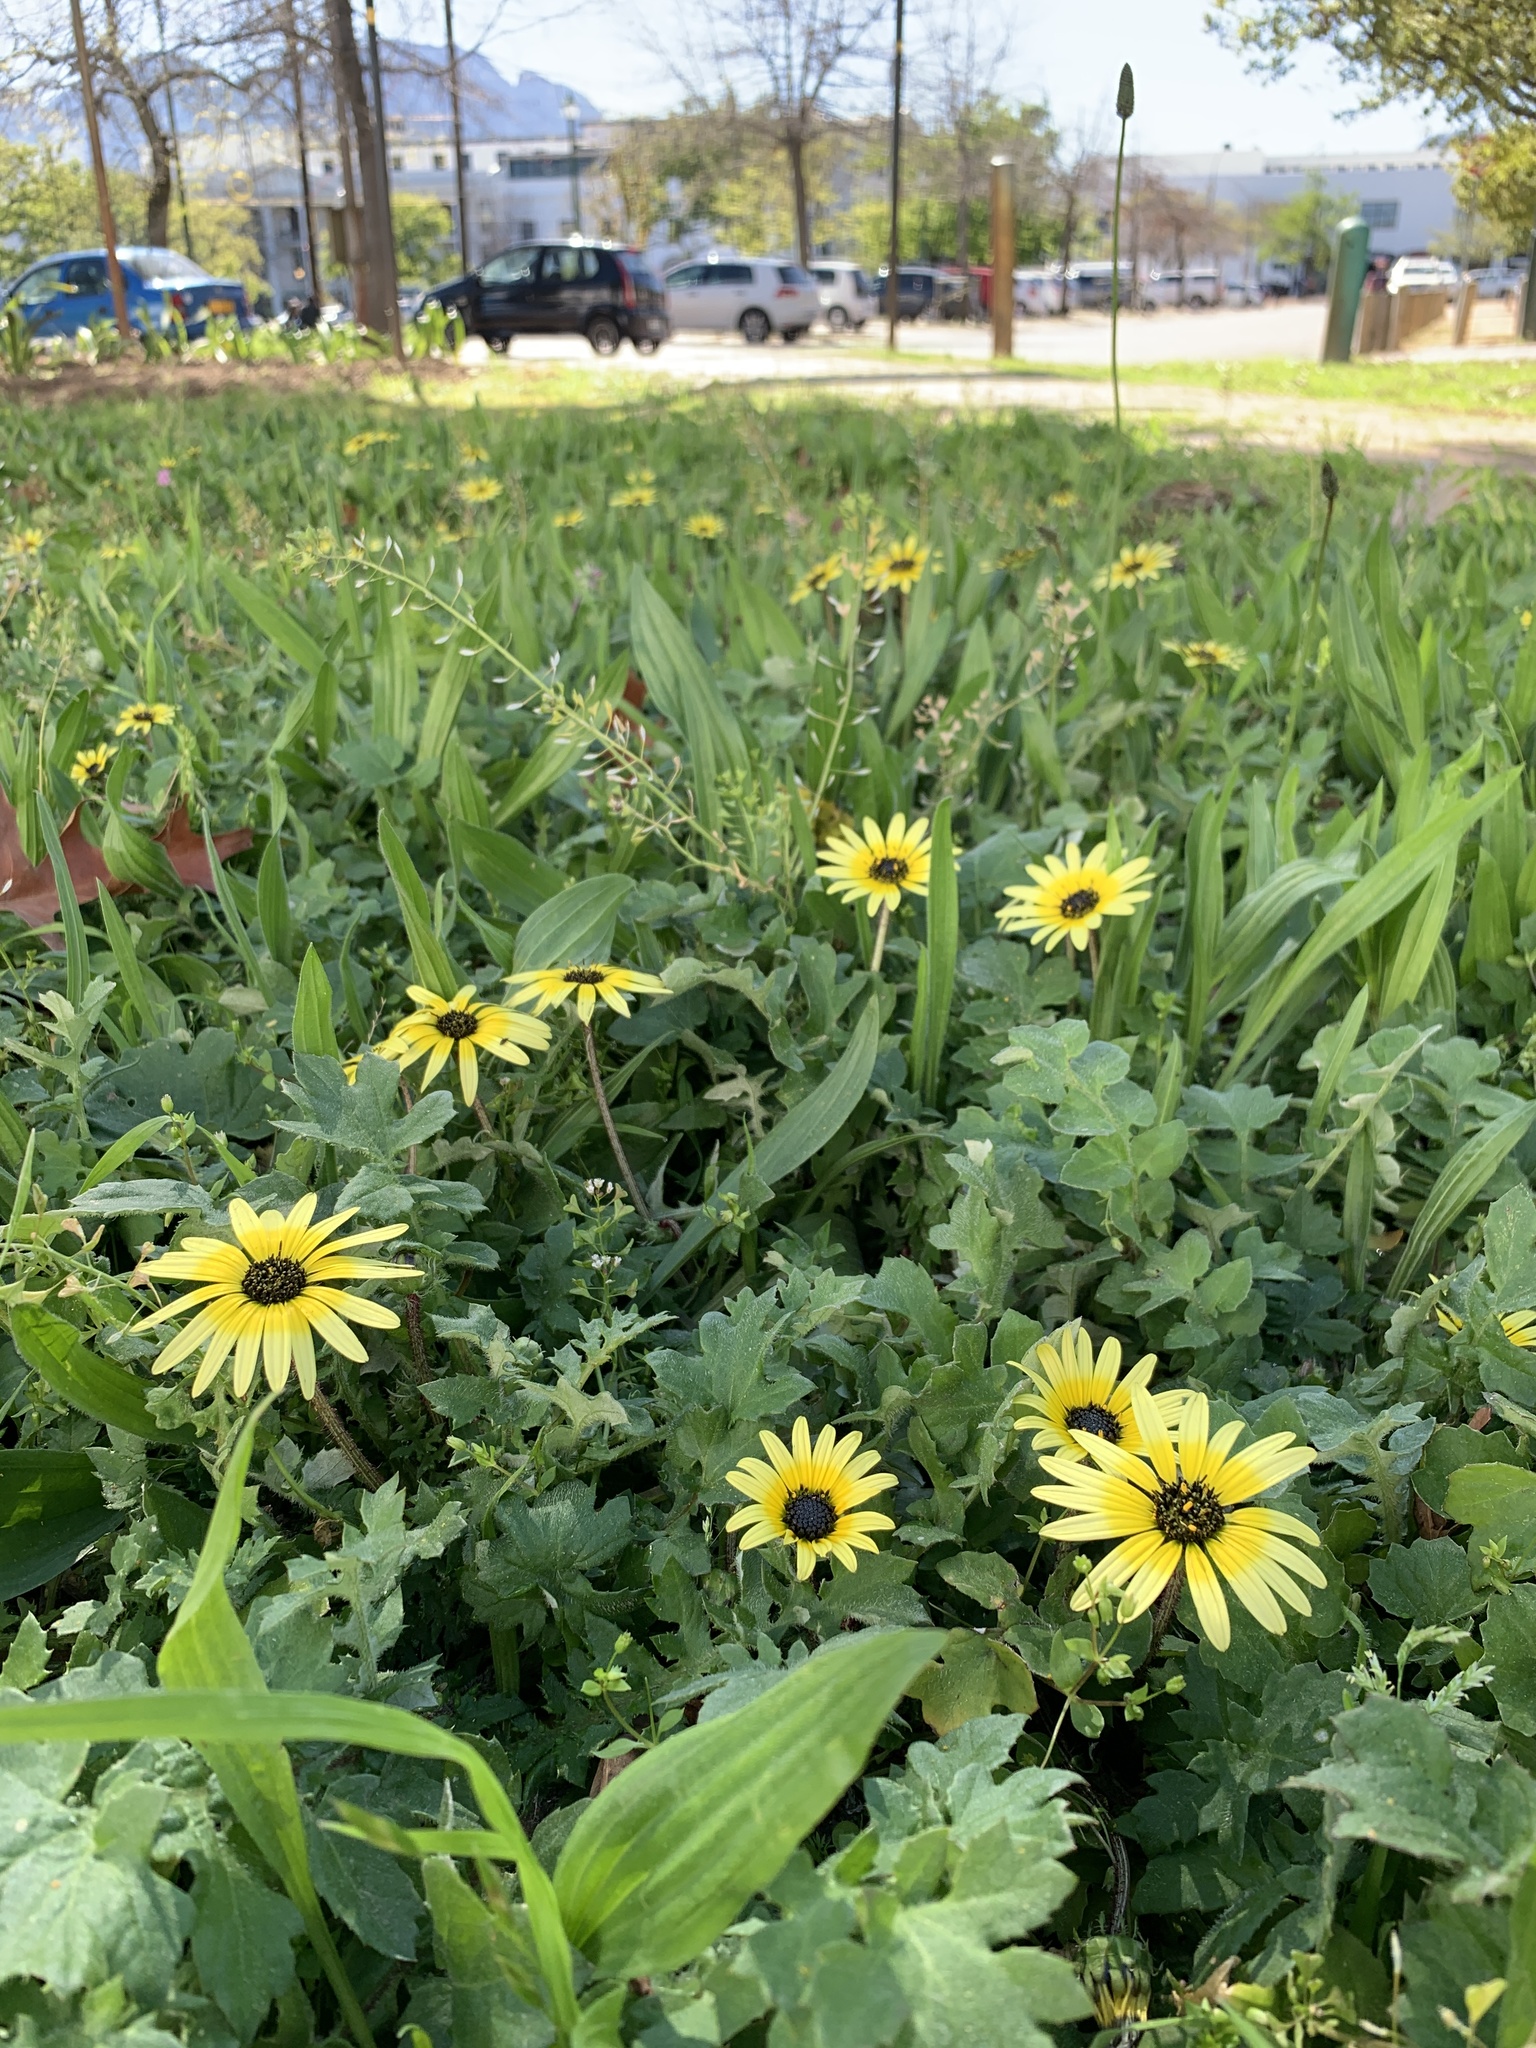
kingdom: Plantae
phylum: Tracheophyta
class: Magnoliopsida
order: Asterales
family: Asteraceae
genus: Arctotheca
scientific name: Arctotheca calendula
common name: Capeweed
